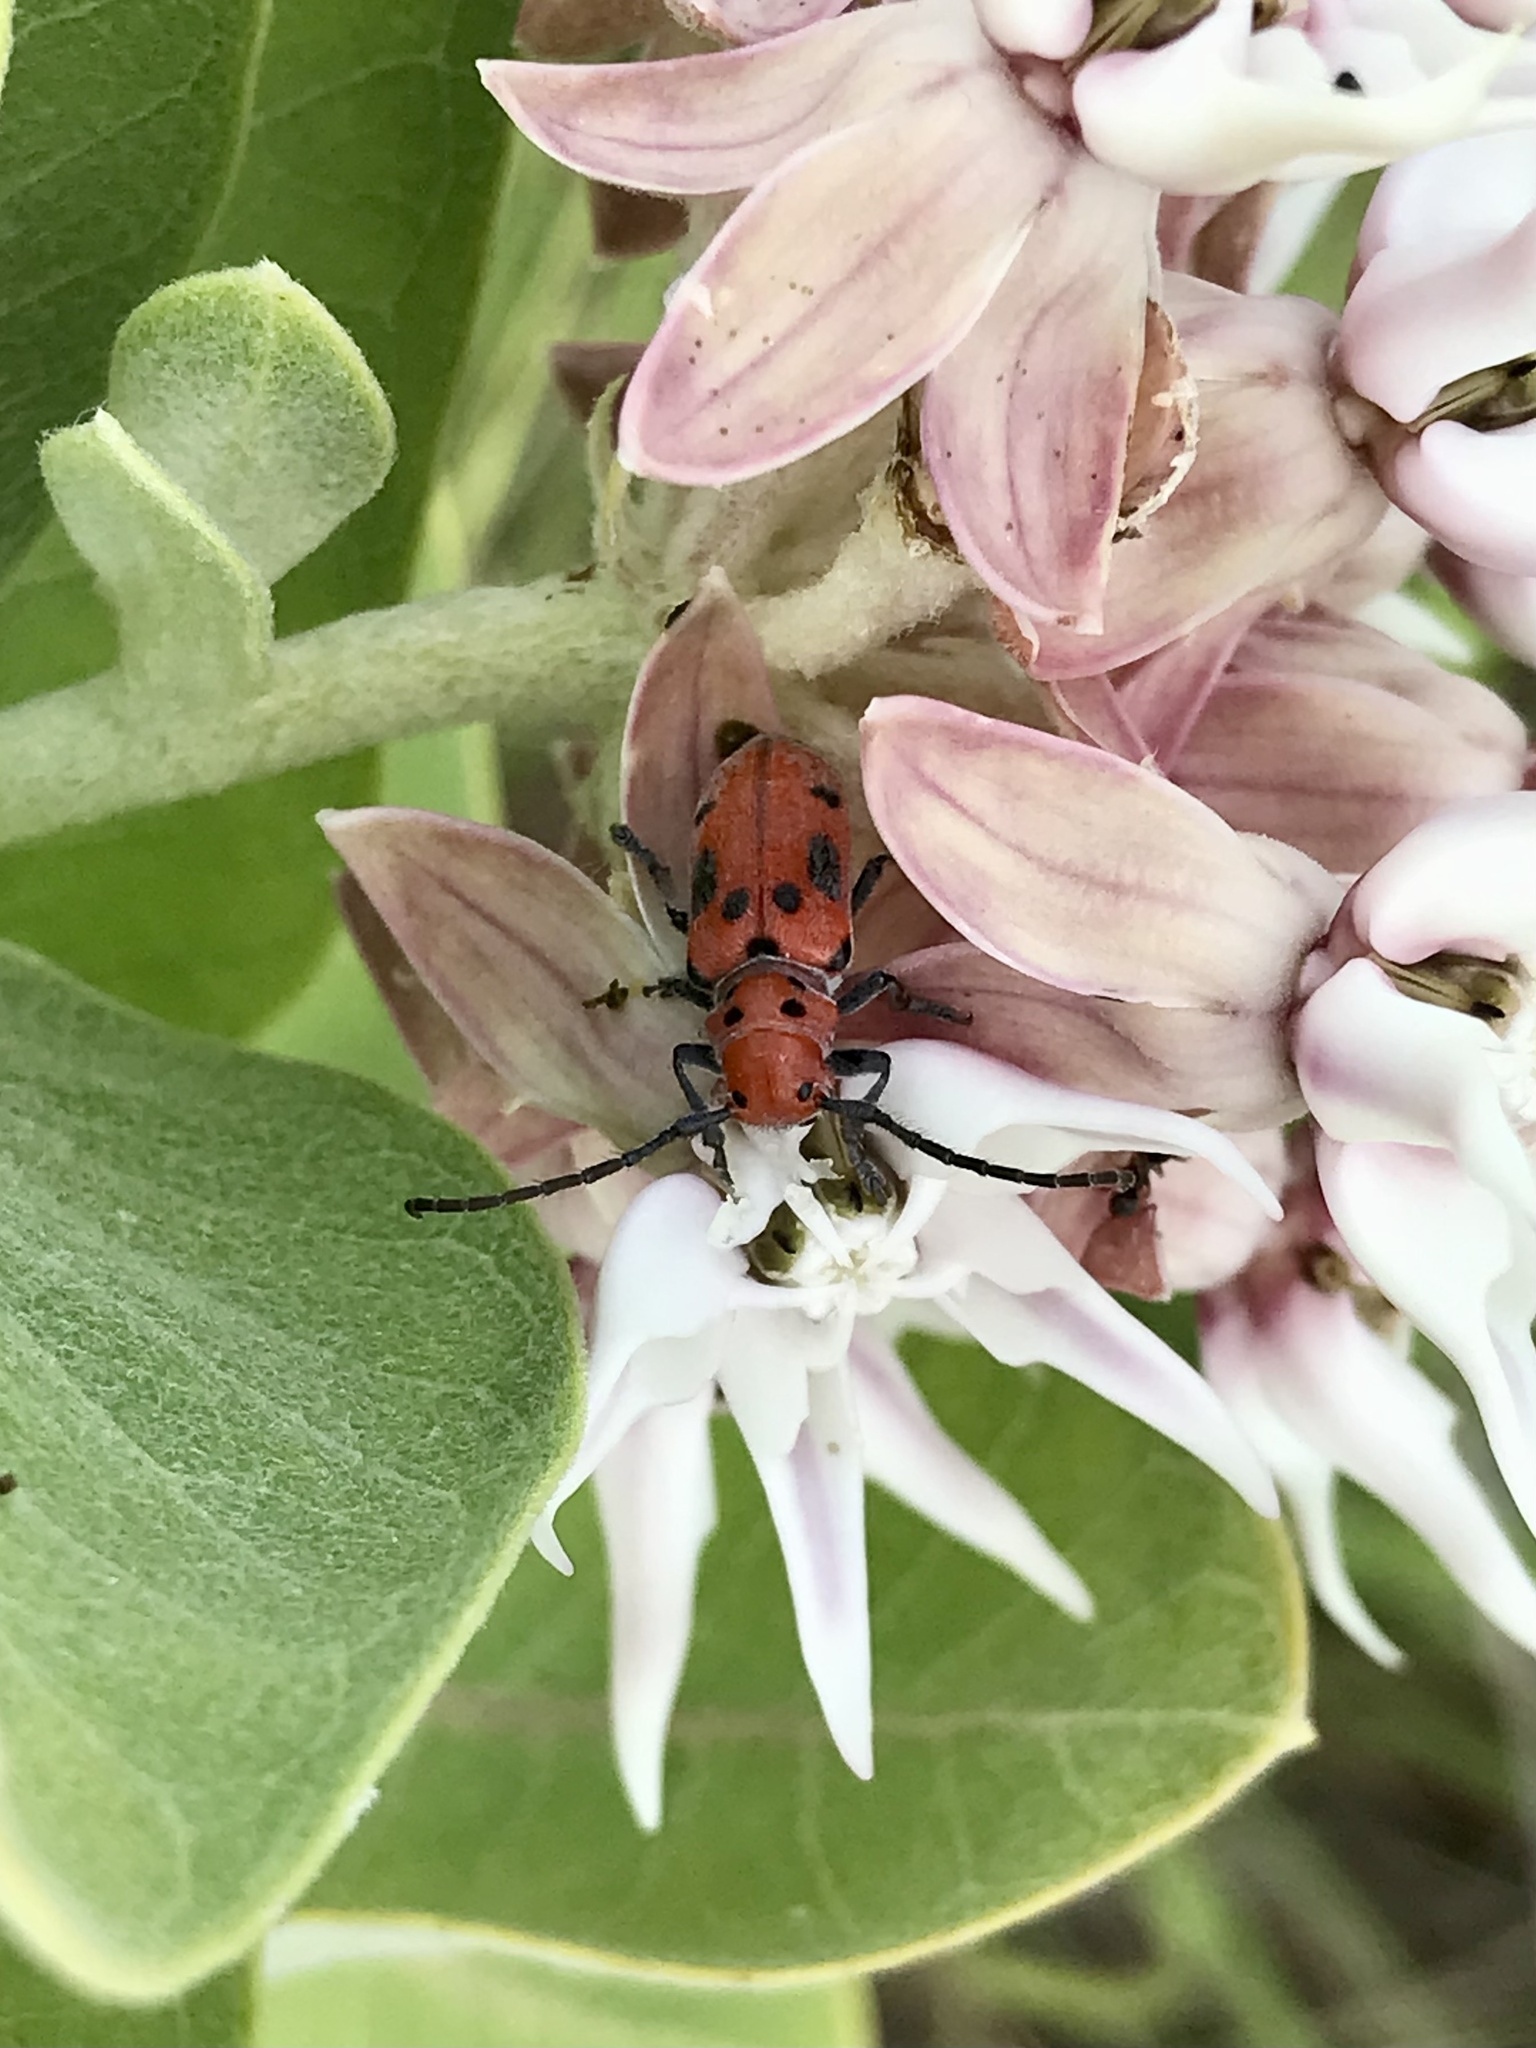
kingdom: Animalia
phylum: Arthropoda
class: Insecta
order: Coleoptera
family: Cerambycidae
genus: Tetraopes
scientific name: Tetraopes tetrophthalmus
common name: Red milkweed beetle
